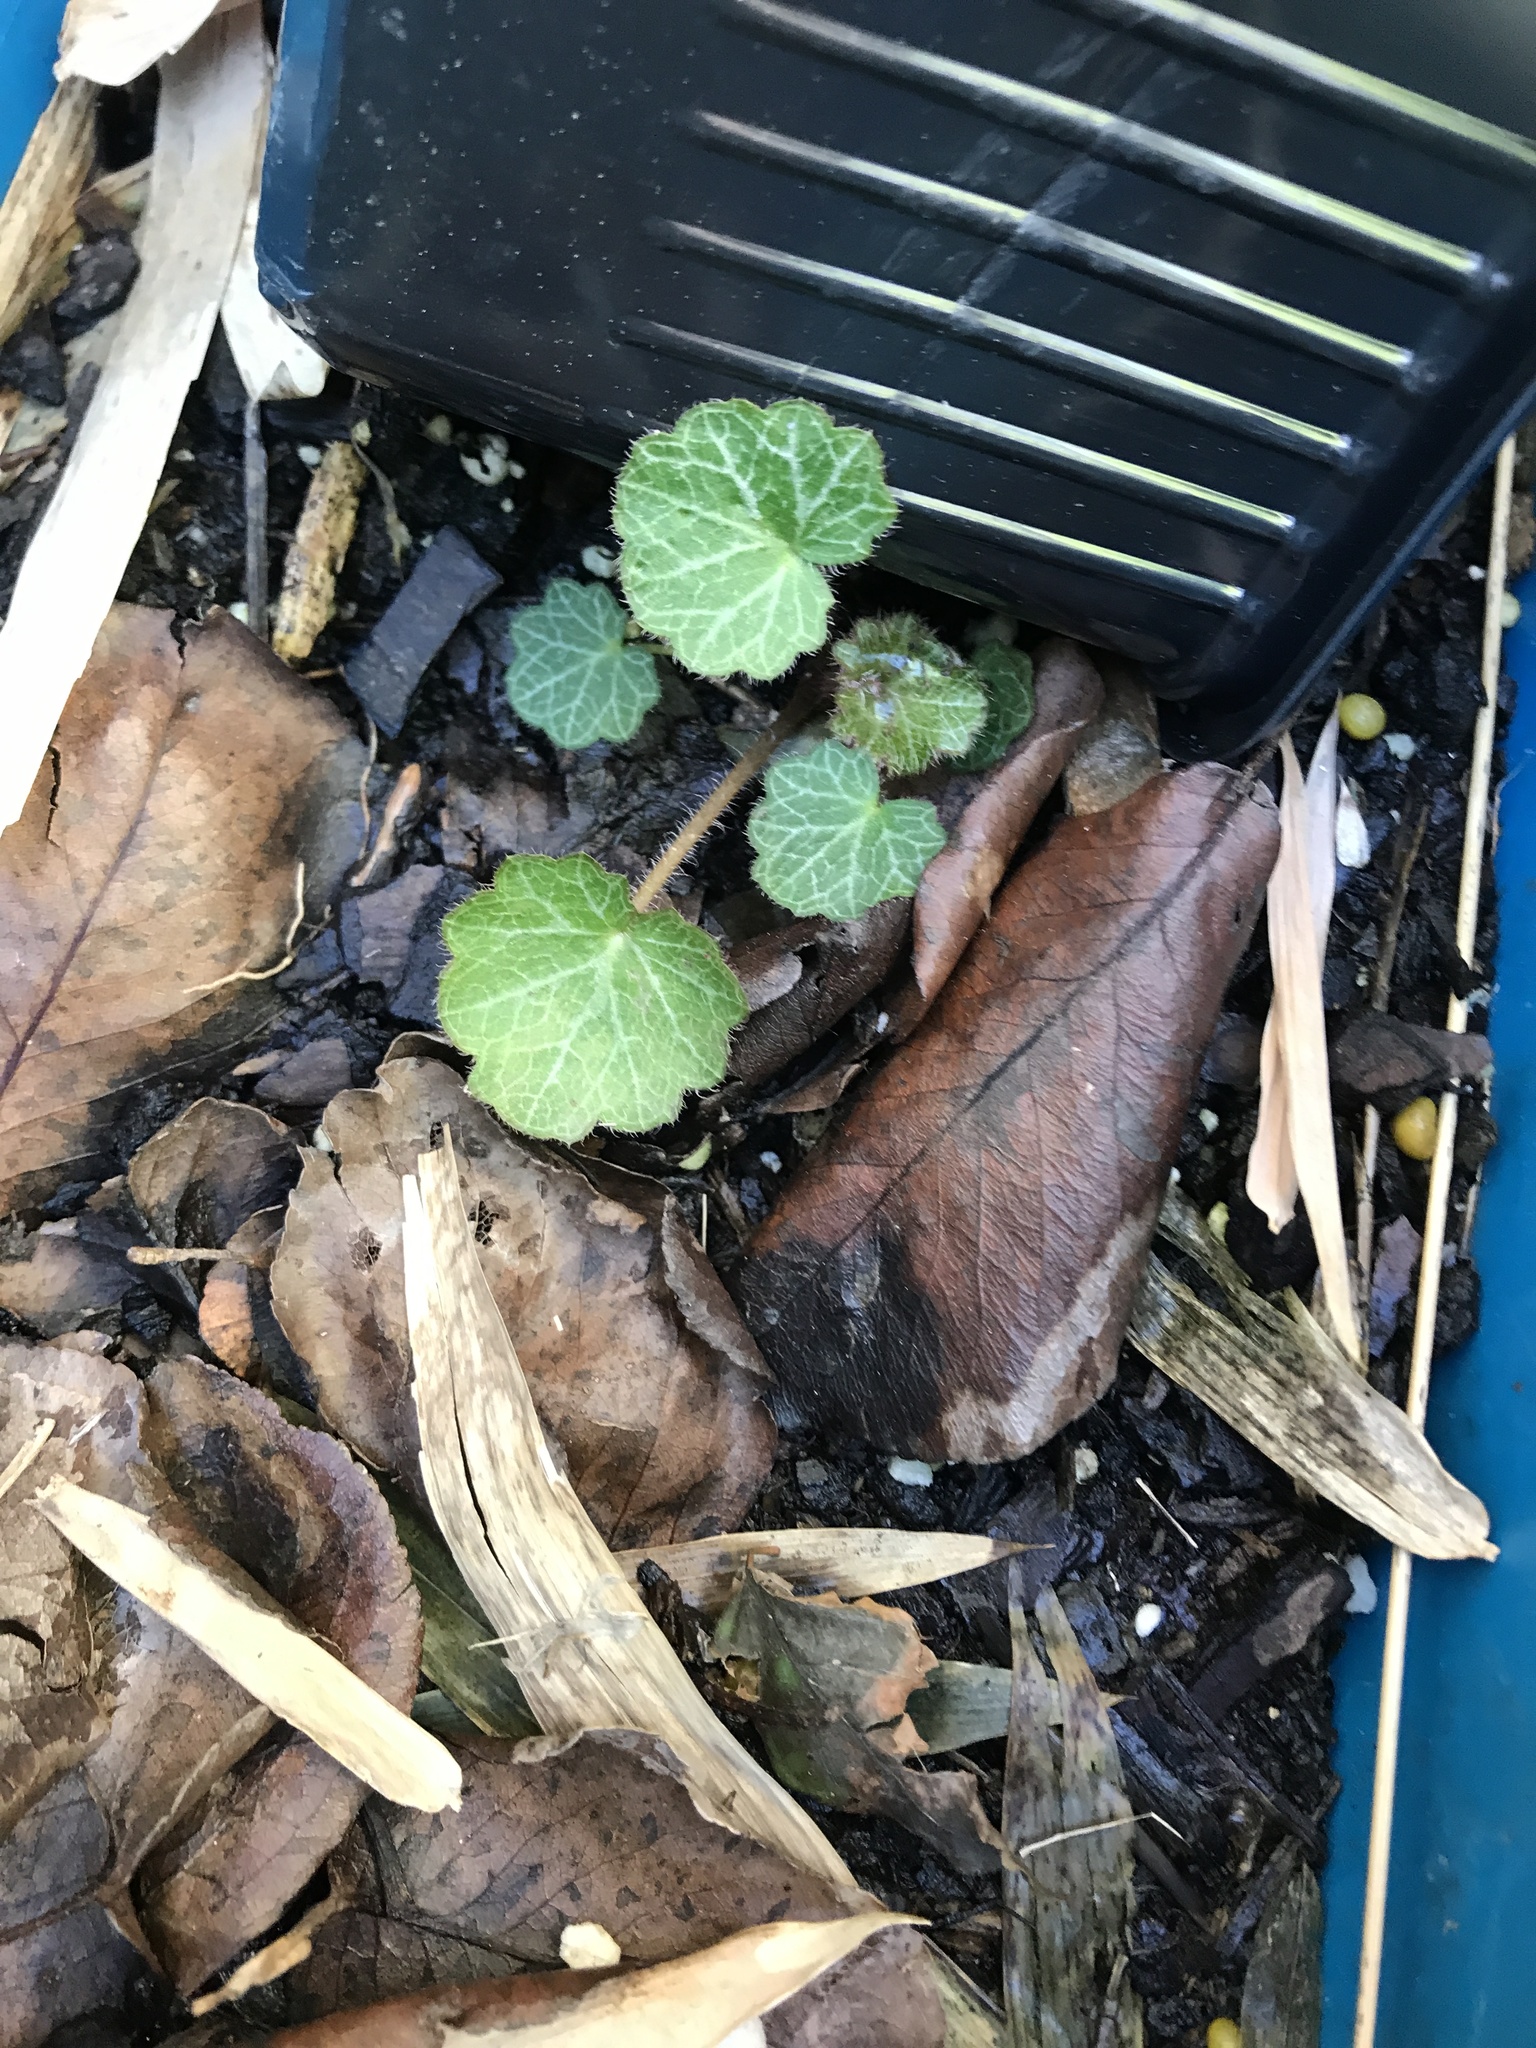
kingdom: Plantae
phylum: Tracheophyta
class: Magnoliopsida
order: Saxifragales
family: Saxifragaceae
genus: Saxifraga
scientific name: Saxifraga stolonifera
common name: Creeping saxifrage
